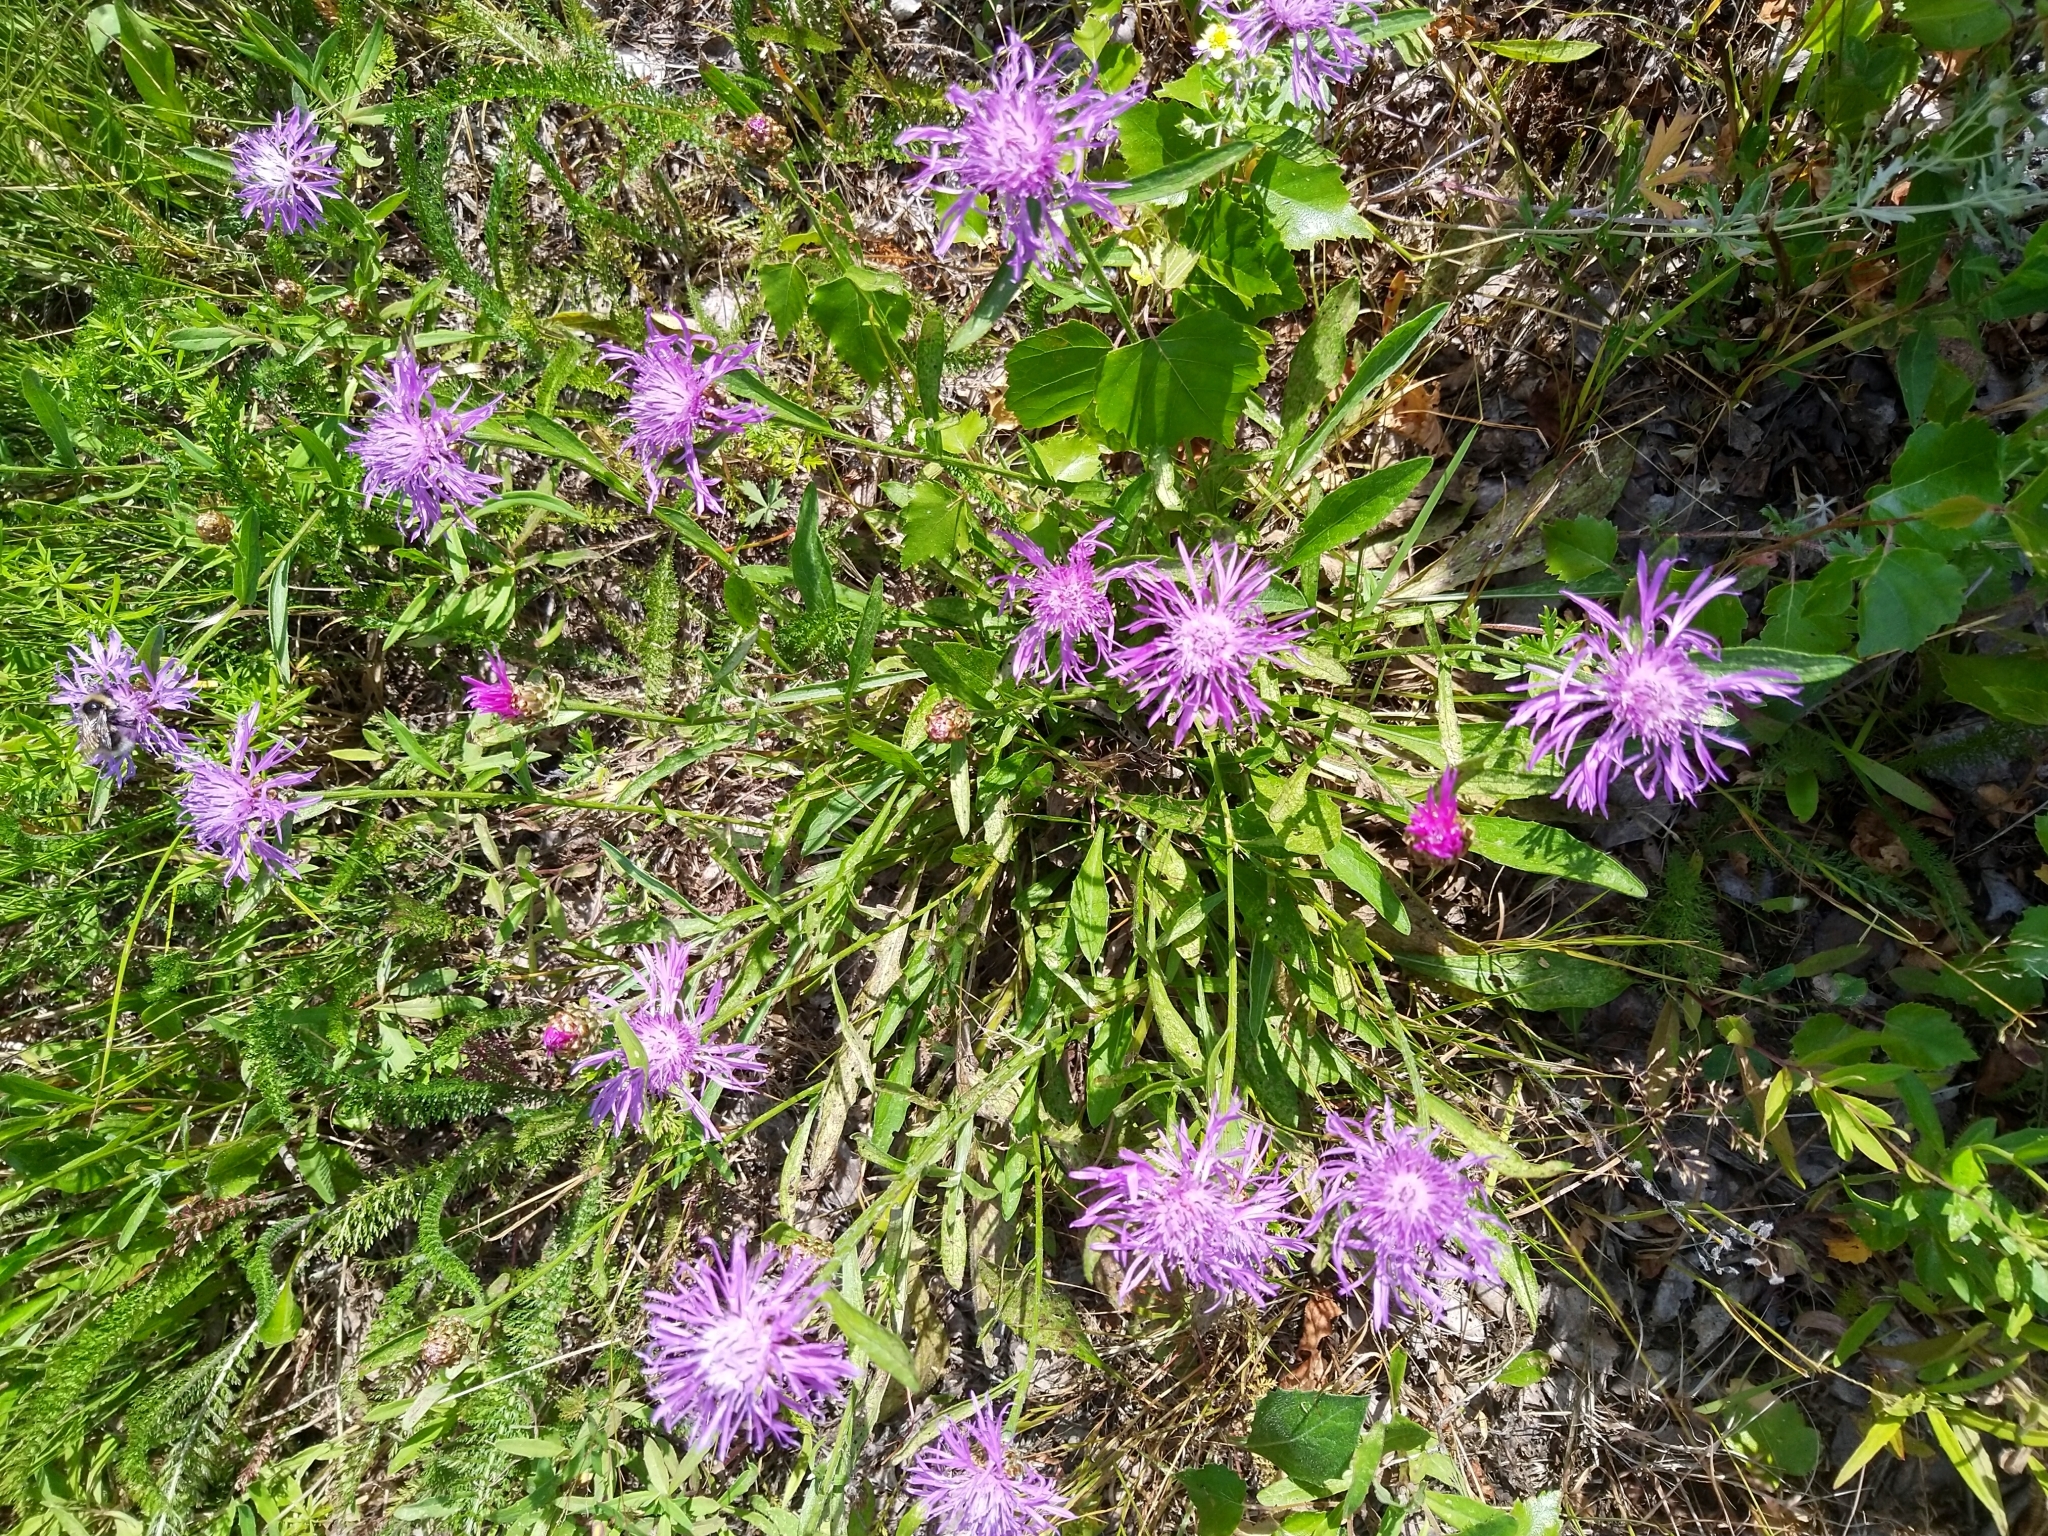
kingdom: Plantae
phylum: Tracheophyta
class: Magnoliopsida
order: Asterales
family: Asteraceae
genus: Centaurea
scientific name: Centaurea jacea
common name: Brown knapweed
